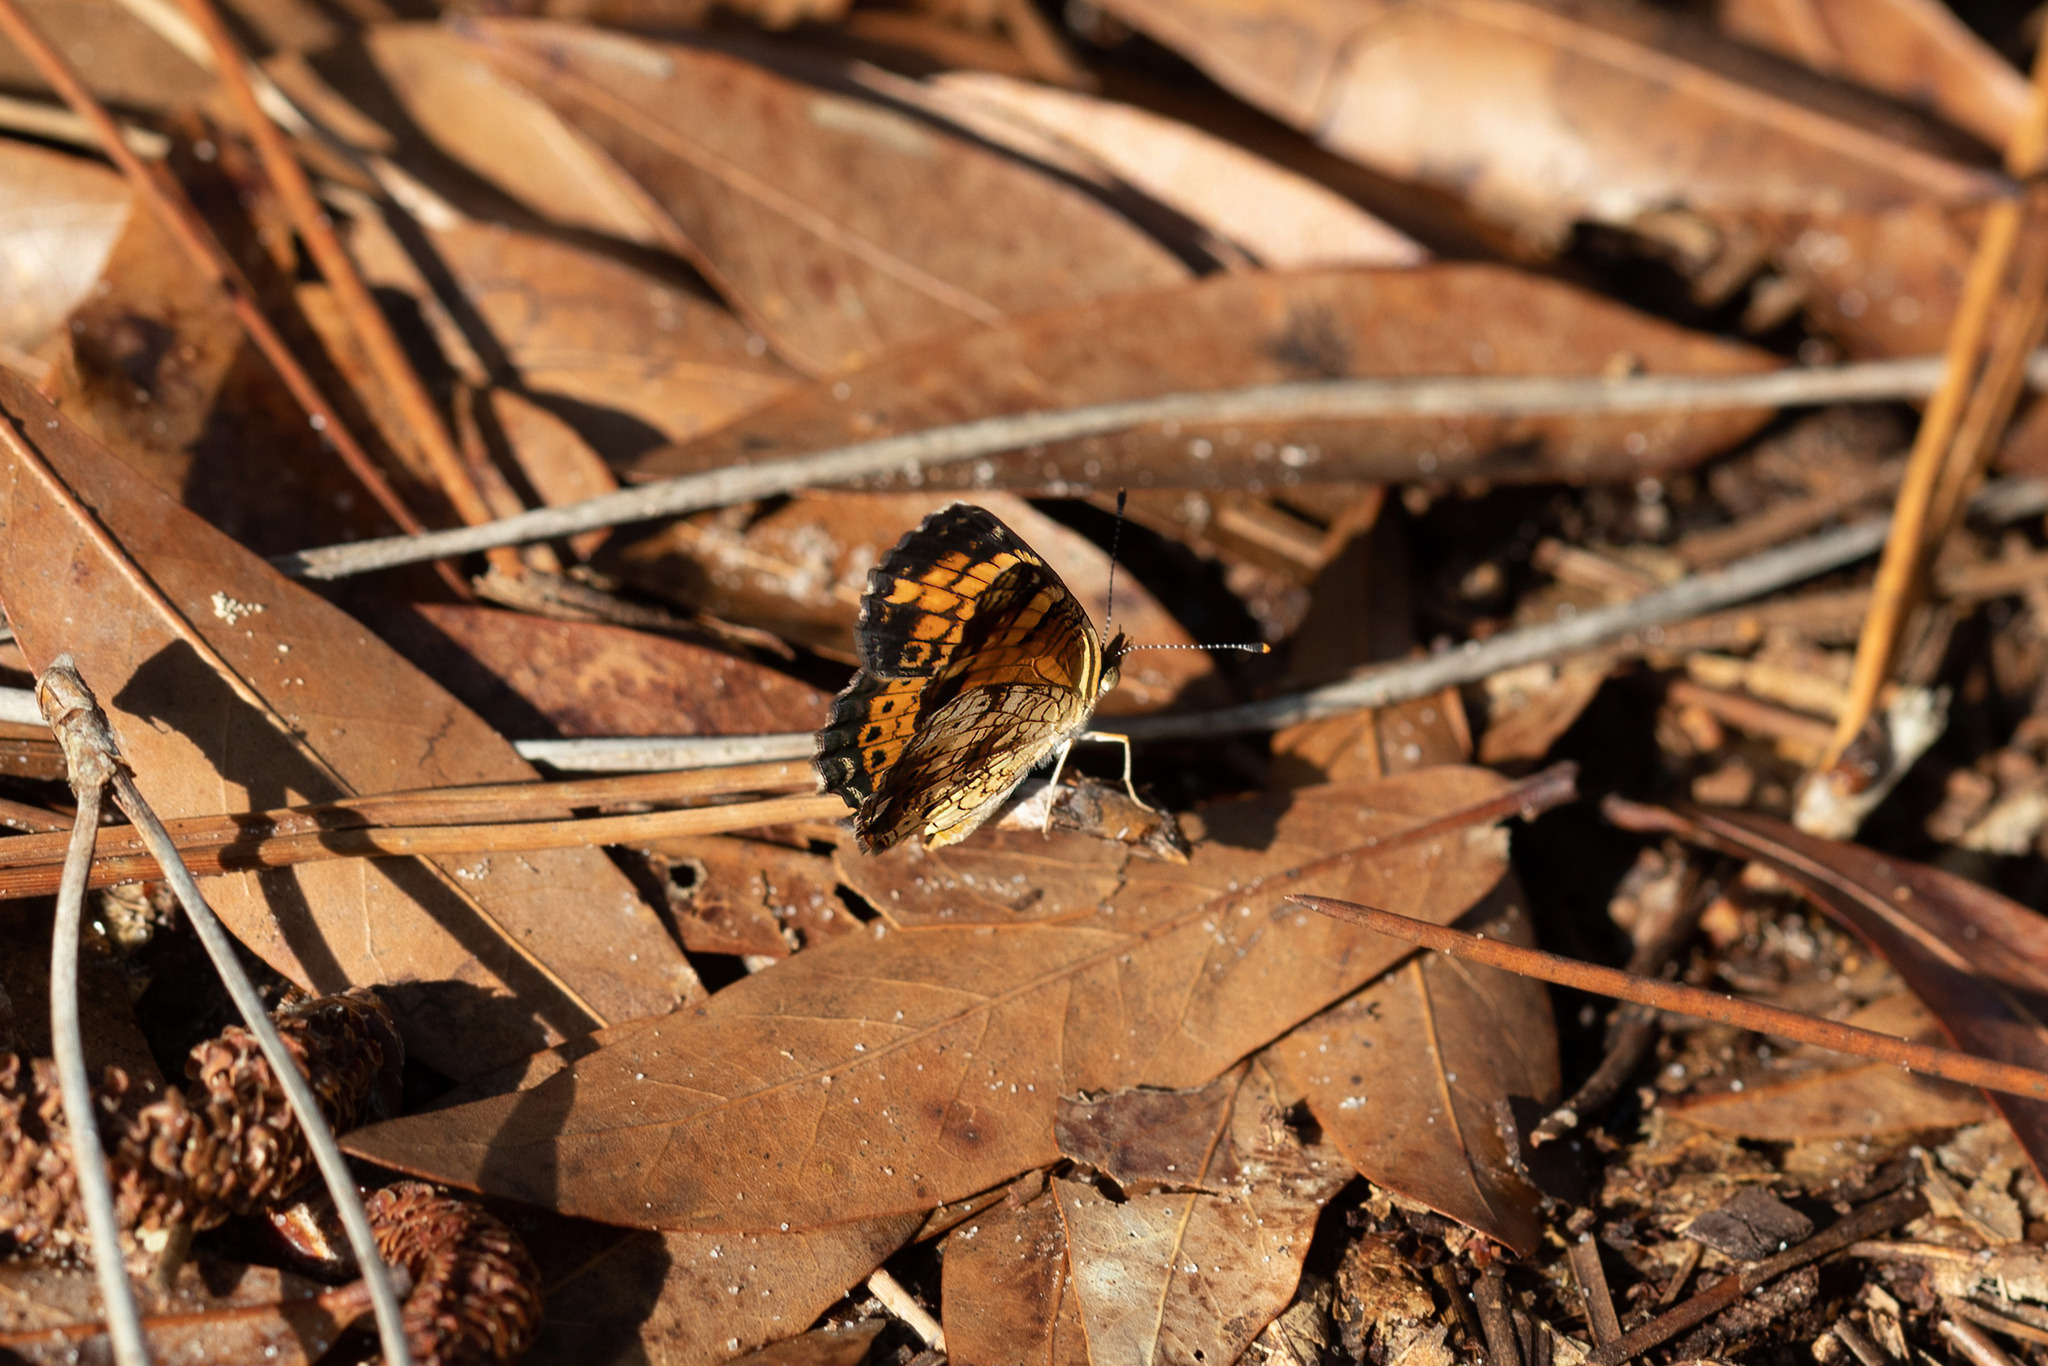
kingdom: Animalia
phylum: Arthropoda
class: Insecta
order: Lepidoptera
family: Nymphalidae
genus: Phyciodes
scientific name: Phyciodes tharos
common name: Pearl crescent
